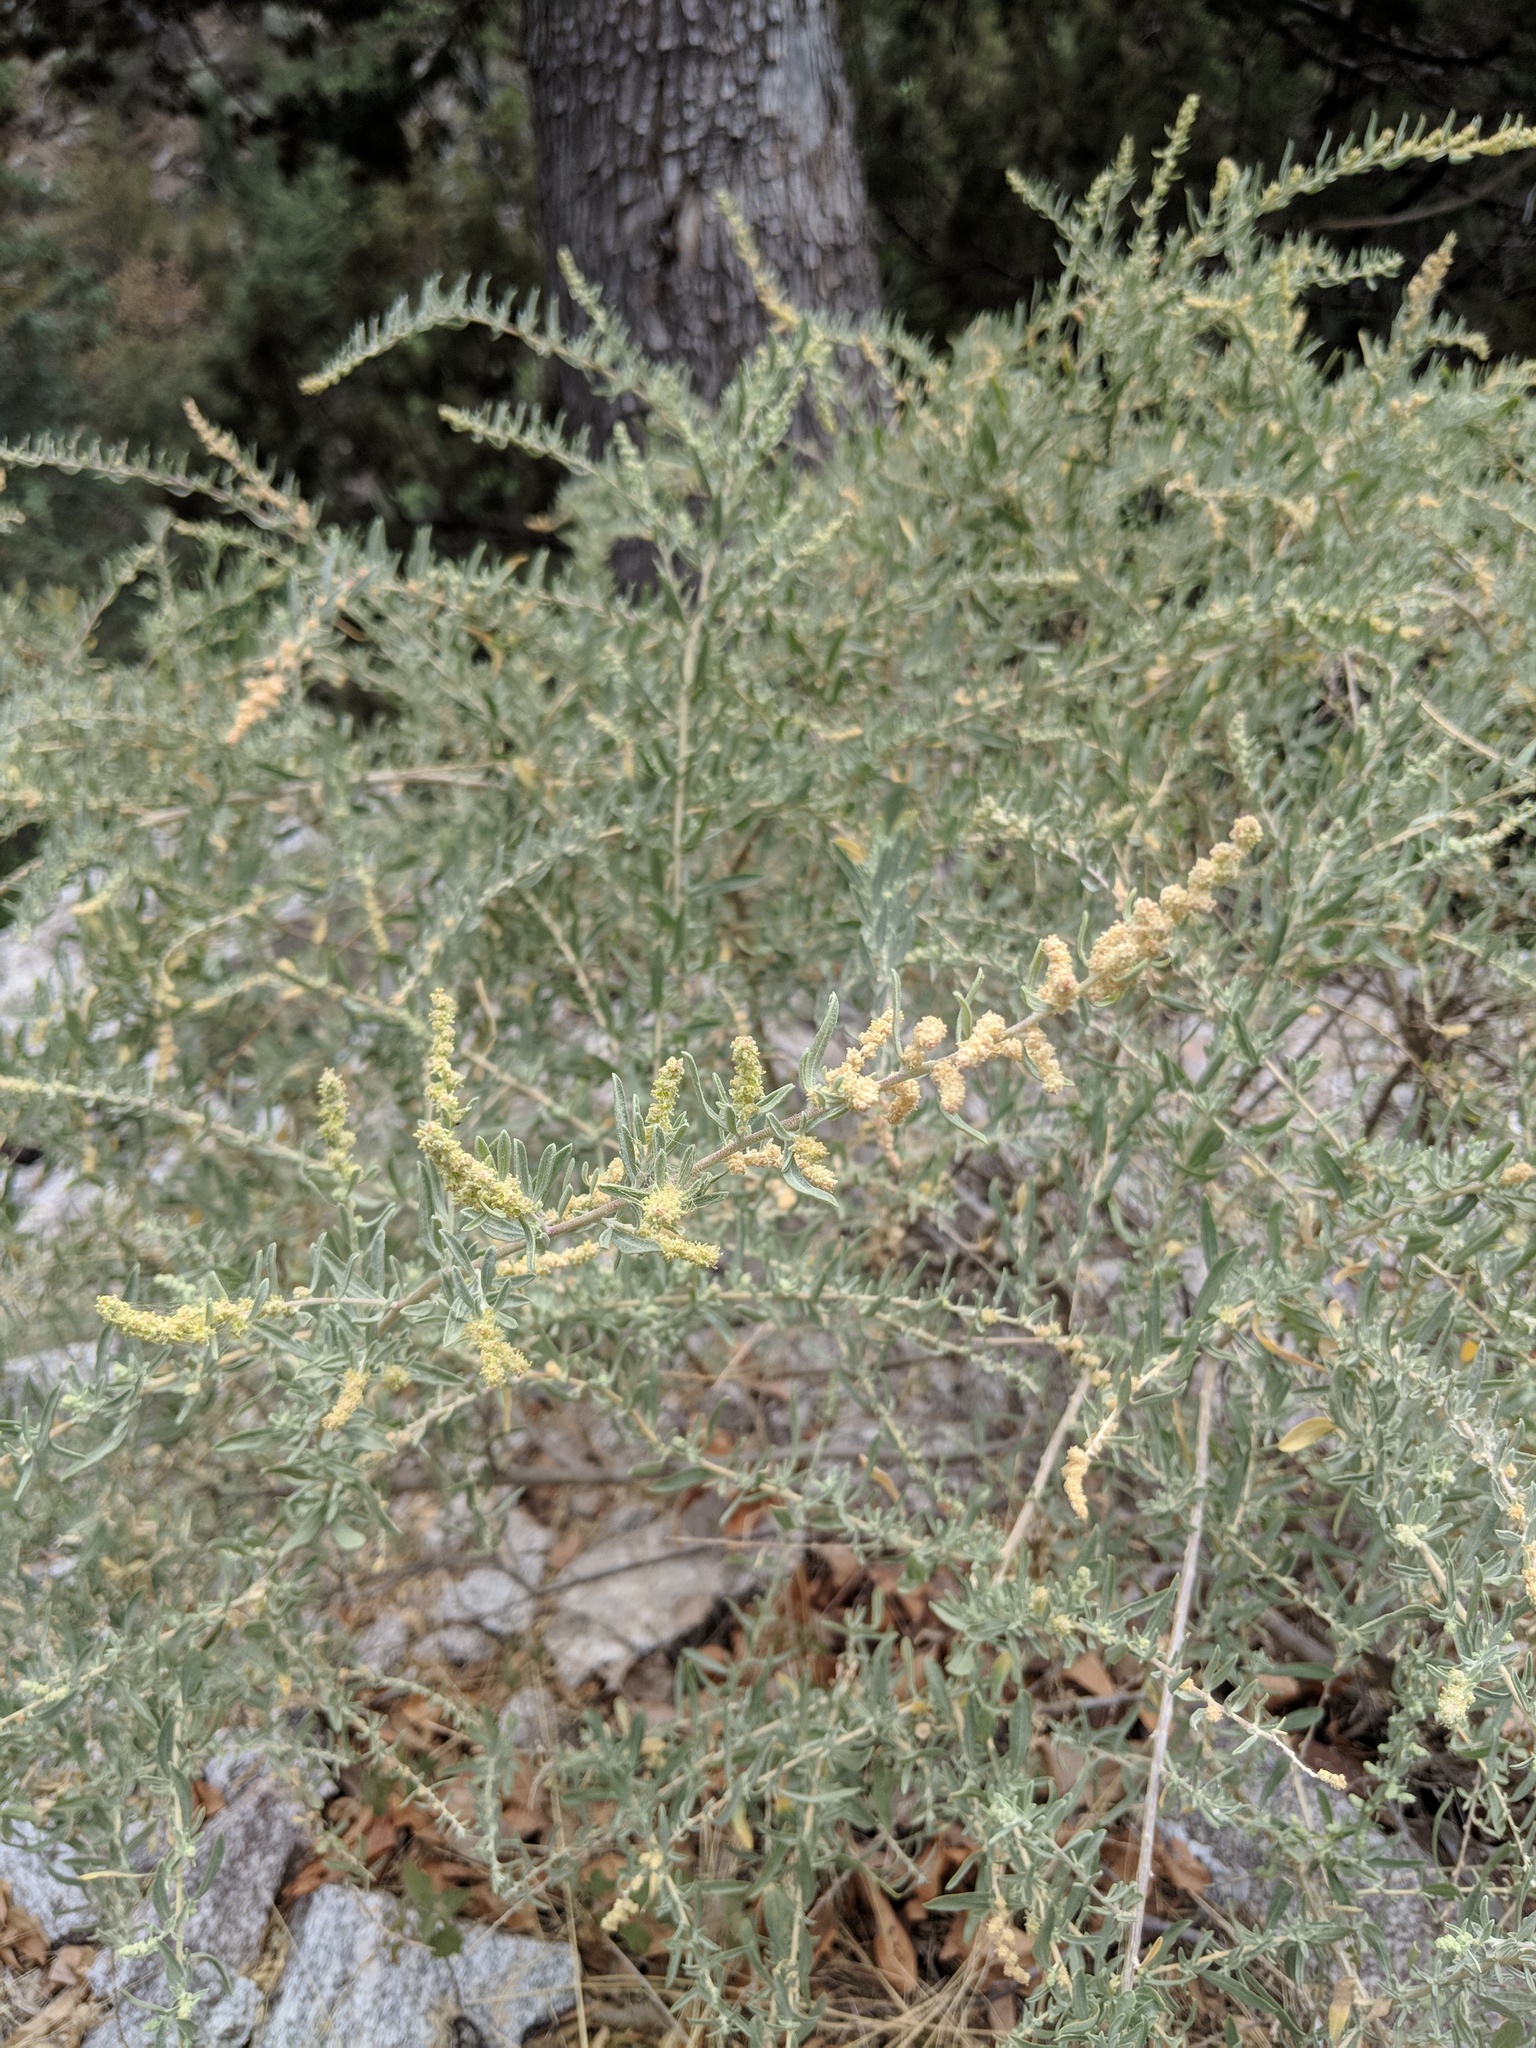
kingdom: Plantae
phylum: Tracheophyta
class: Magnoliopsida
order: Caryophyllales
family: Amaranthaceae
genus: Atriplex
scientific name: Atriplex canescens
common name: Four-wing saltbush
